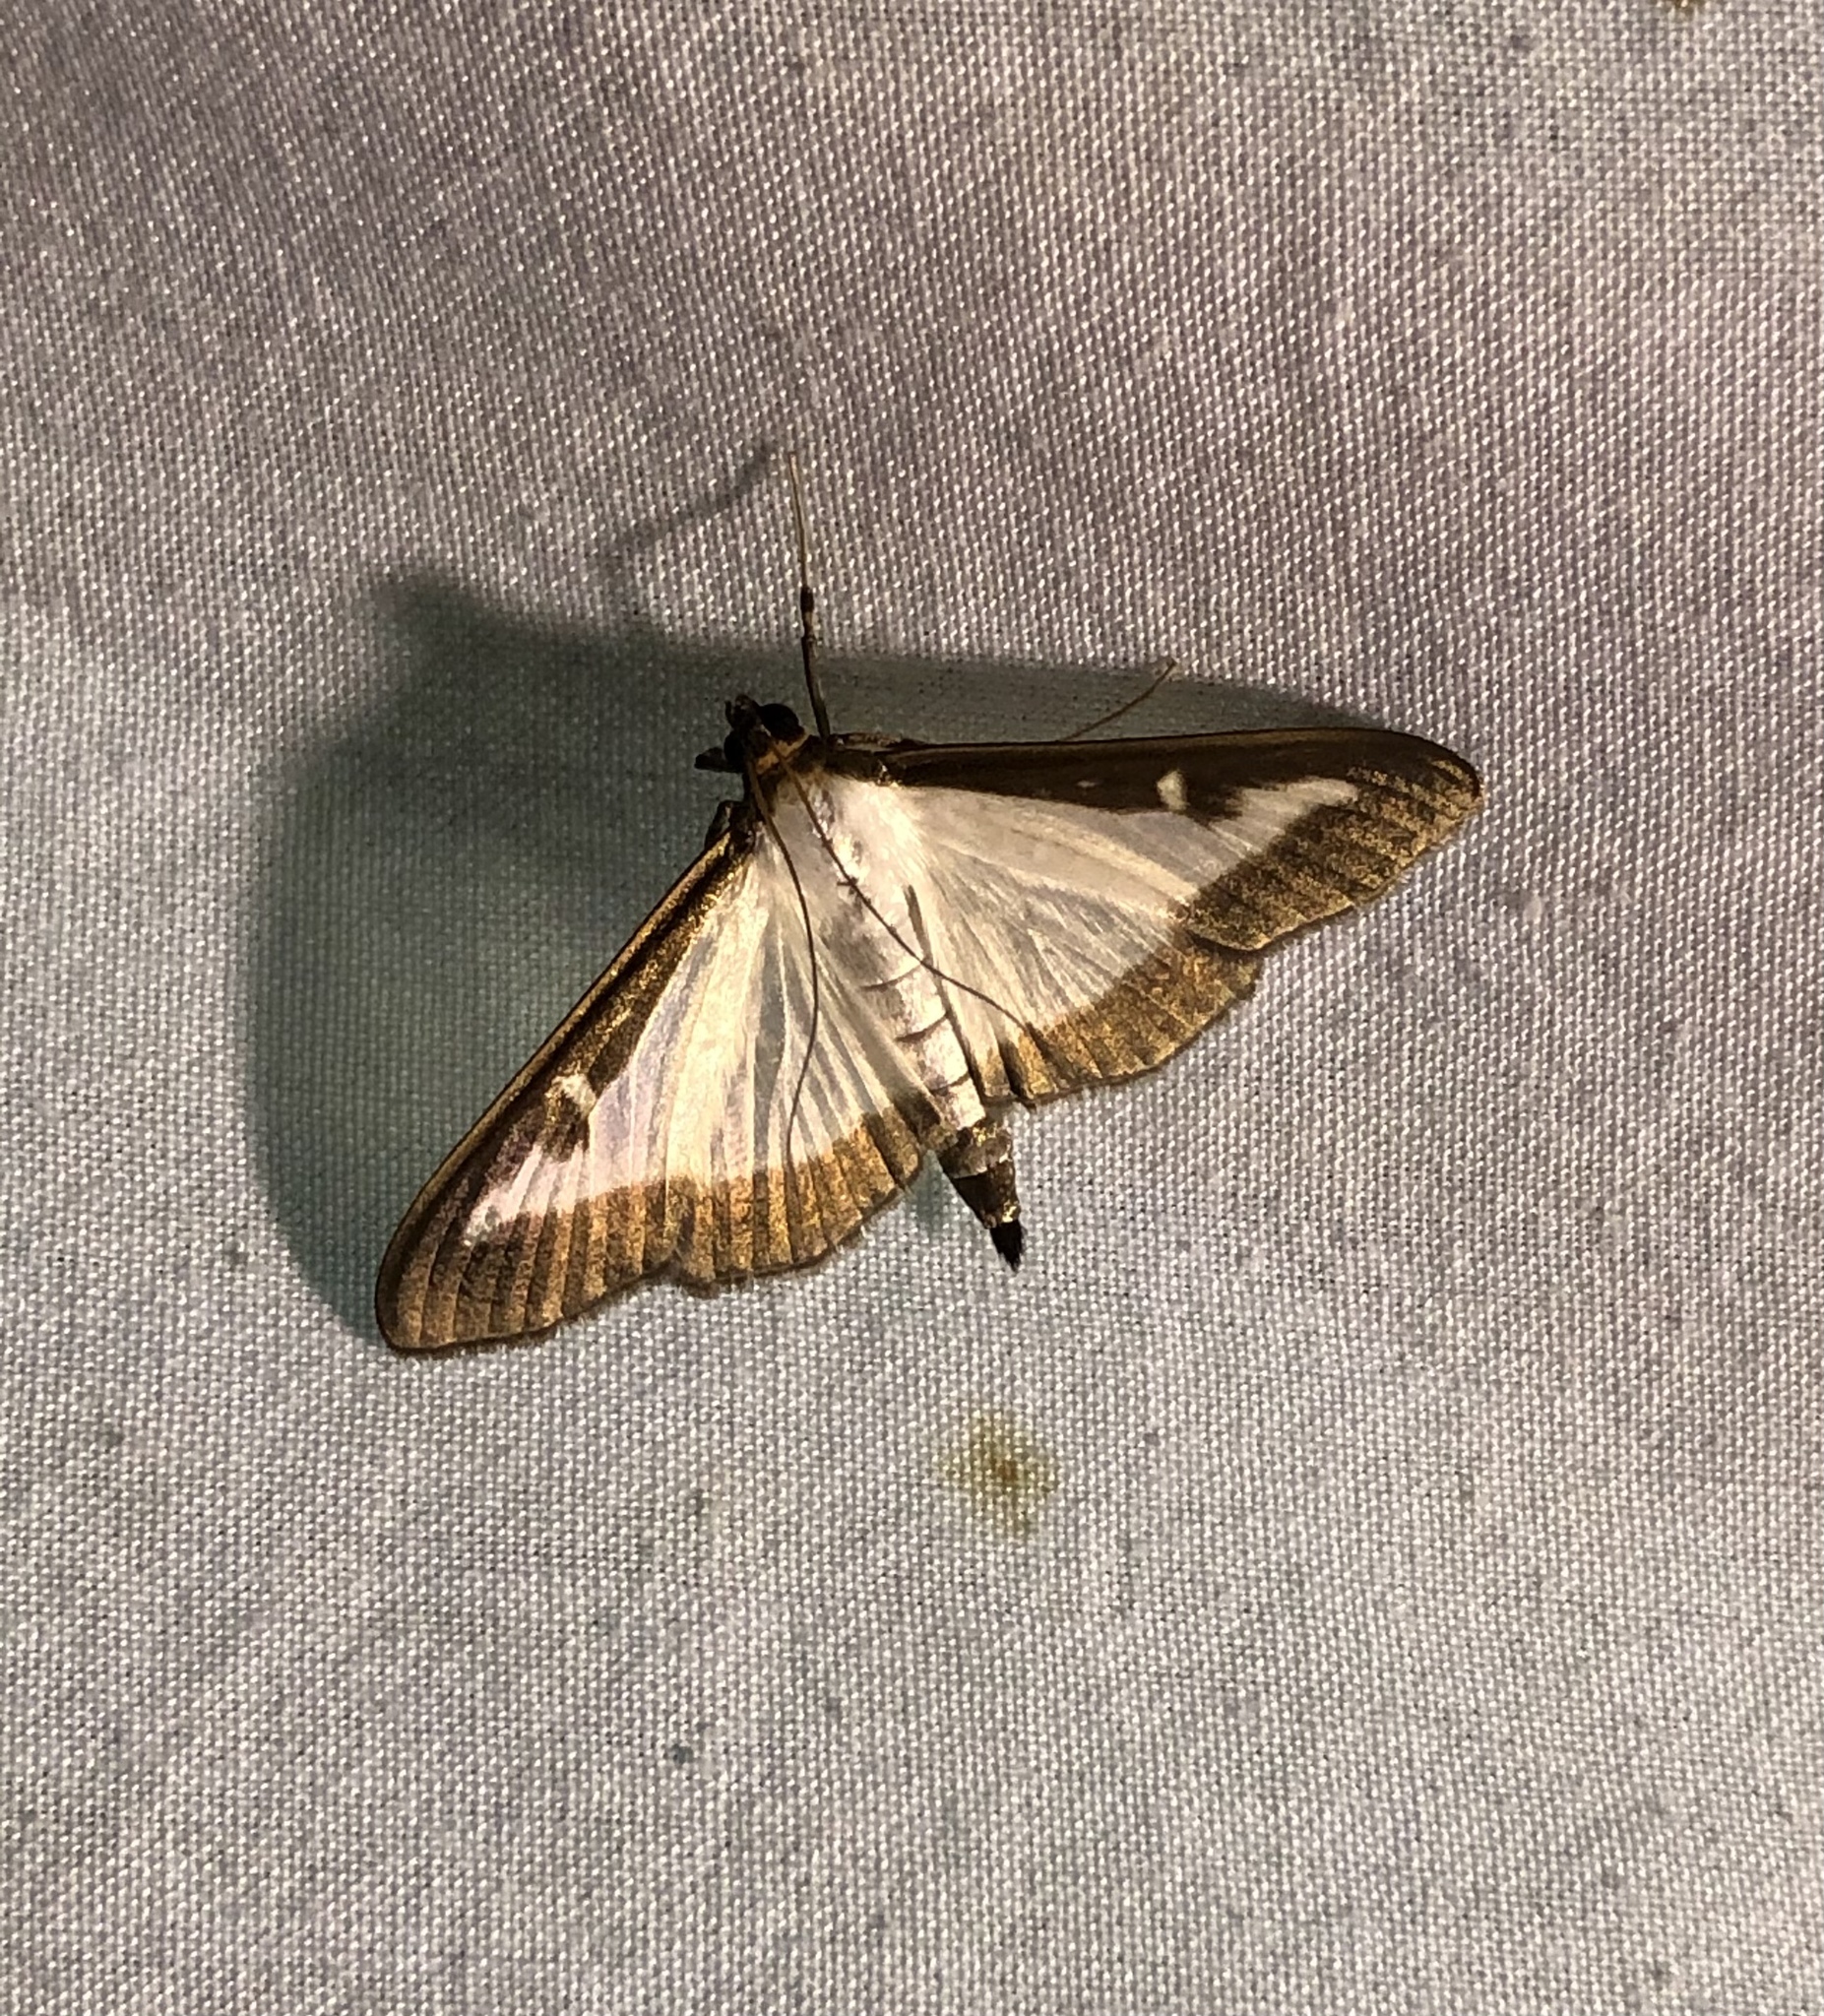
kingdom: Animalia
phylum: Arthropoda
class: Insecta
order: Lepidoptera
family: Crambidae
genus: Cydalima
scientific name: Cydalima perspectalis
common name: Box tree moth
